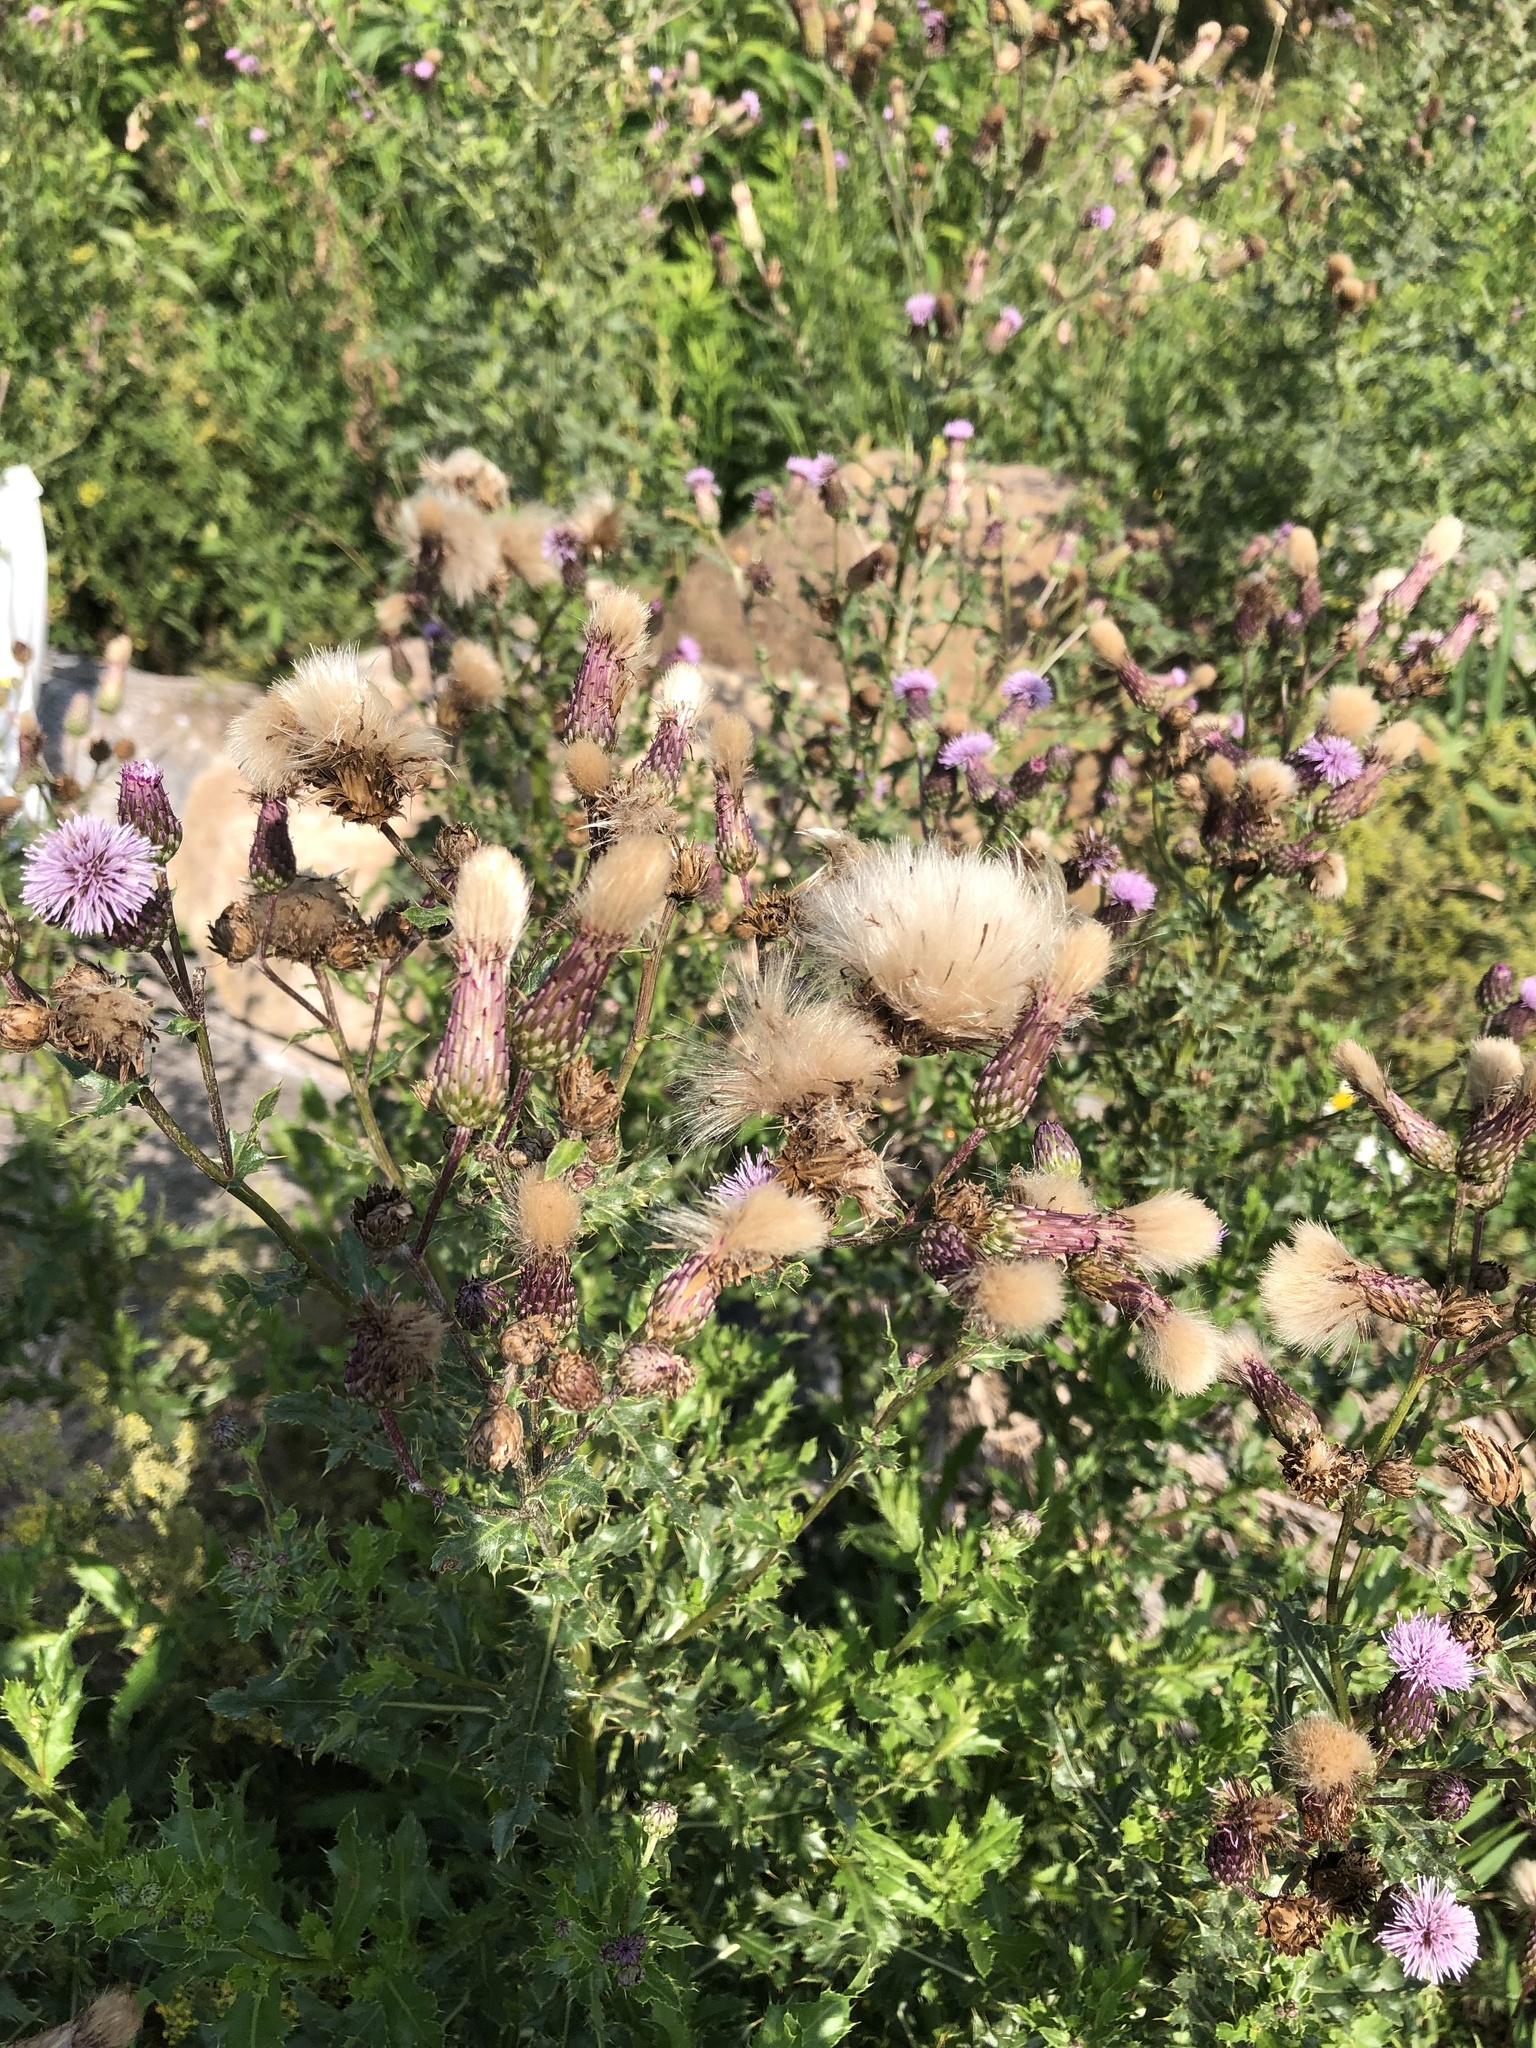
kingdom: Plantae
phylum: Tracheophyta
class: Magnoliopsida
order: Asterales
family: Asteraceae
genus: Cirsium
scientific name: Cirsium arvense
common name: Creeping thistle
